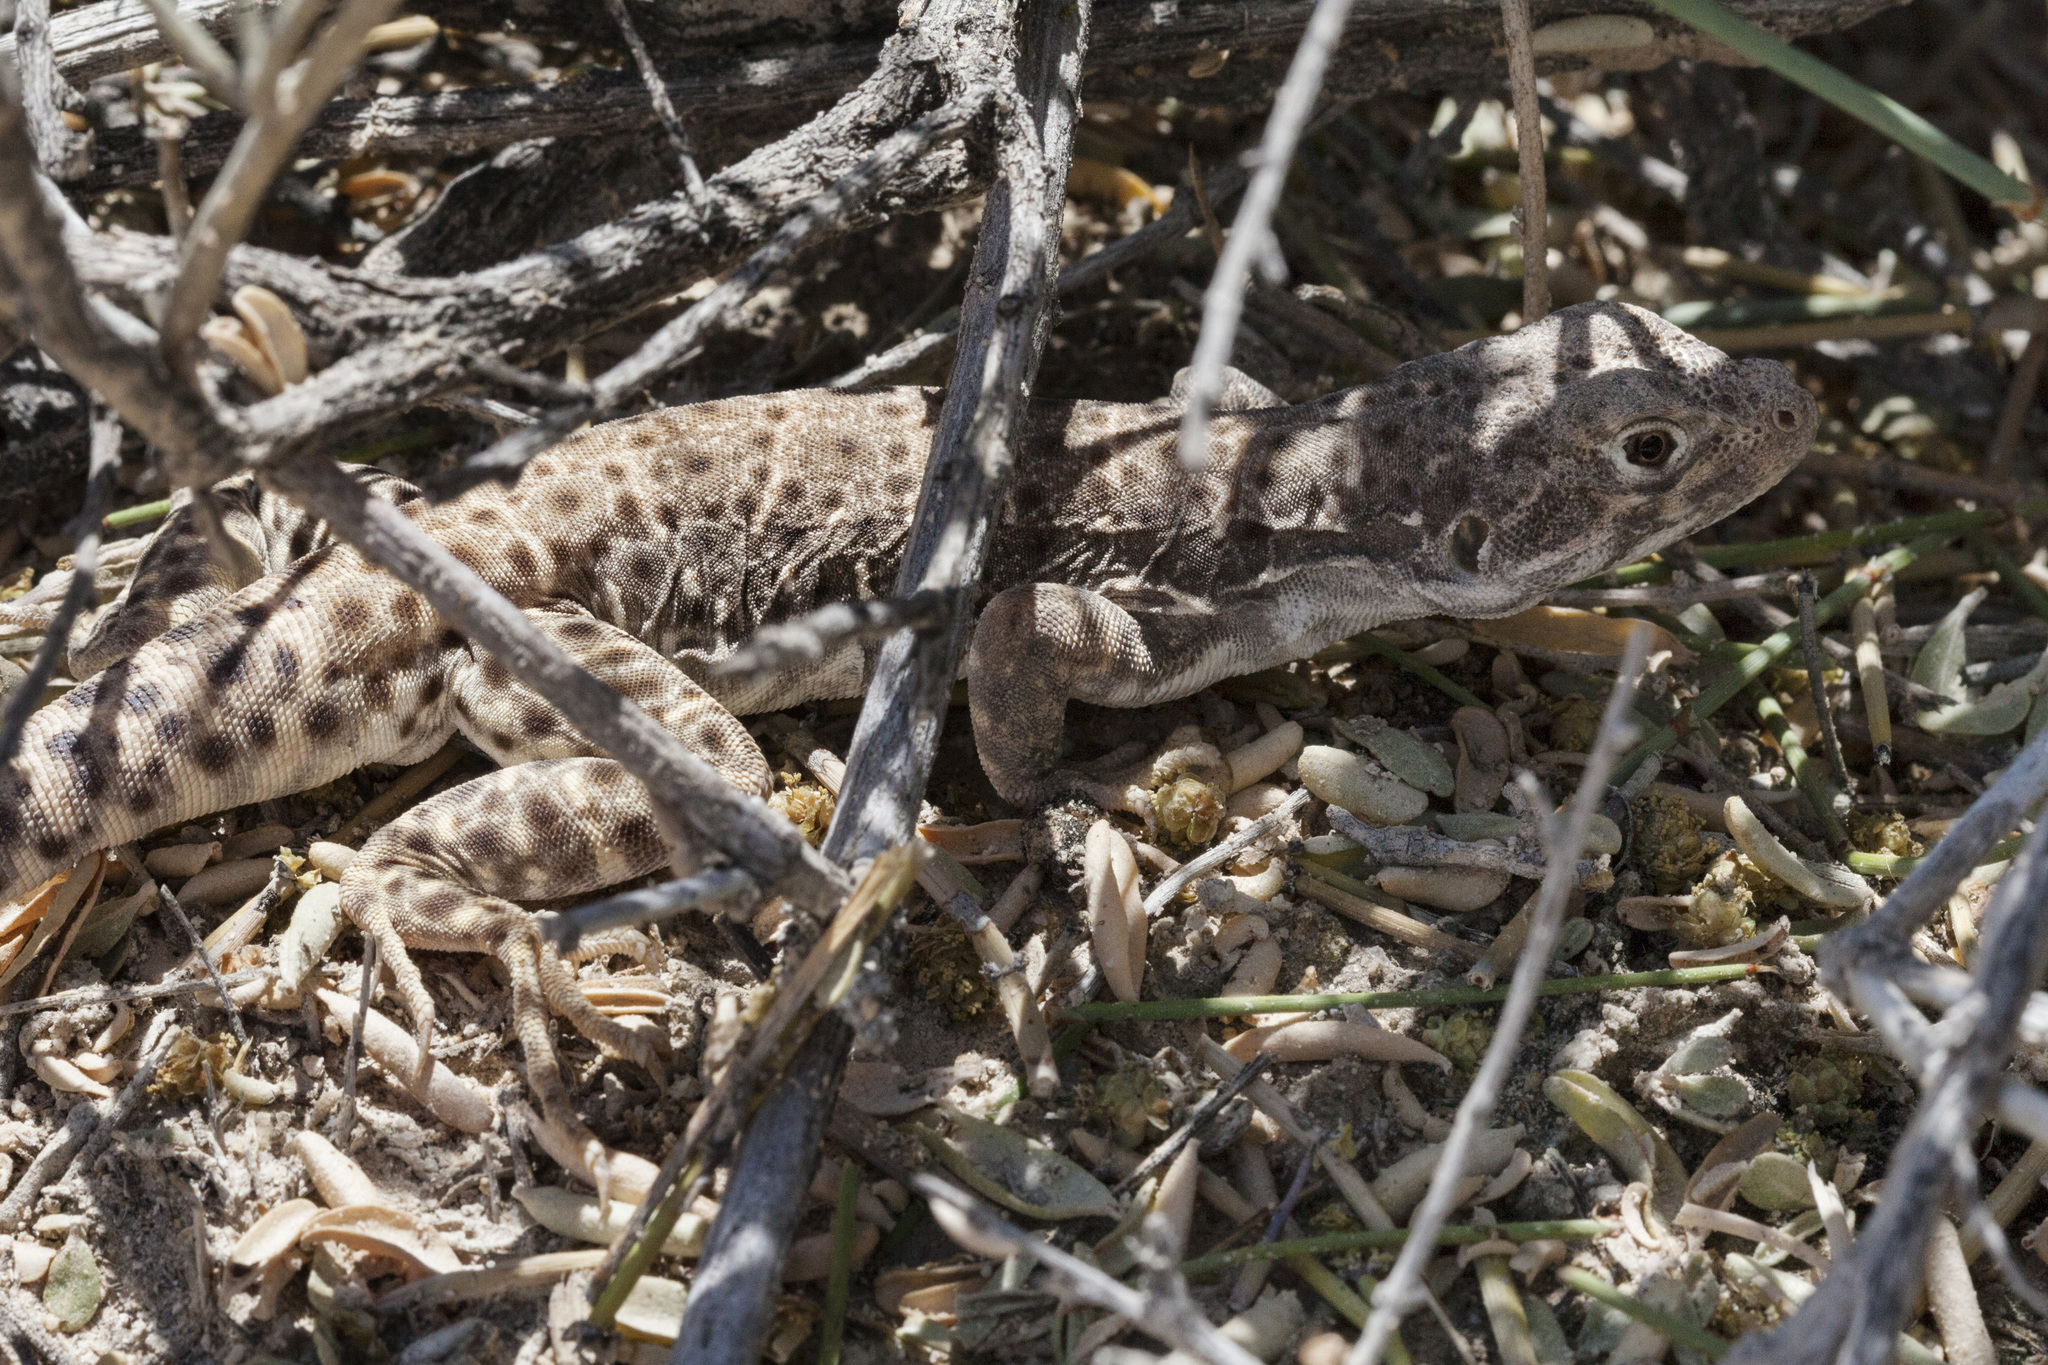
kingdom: Animalia
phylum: Chordata
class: Squamata
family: Crotaphytidae
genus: Gambelia
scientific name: Gambelia wislizenii
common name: Longnose leopard lizard
